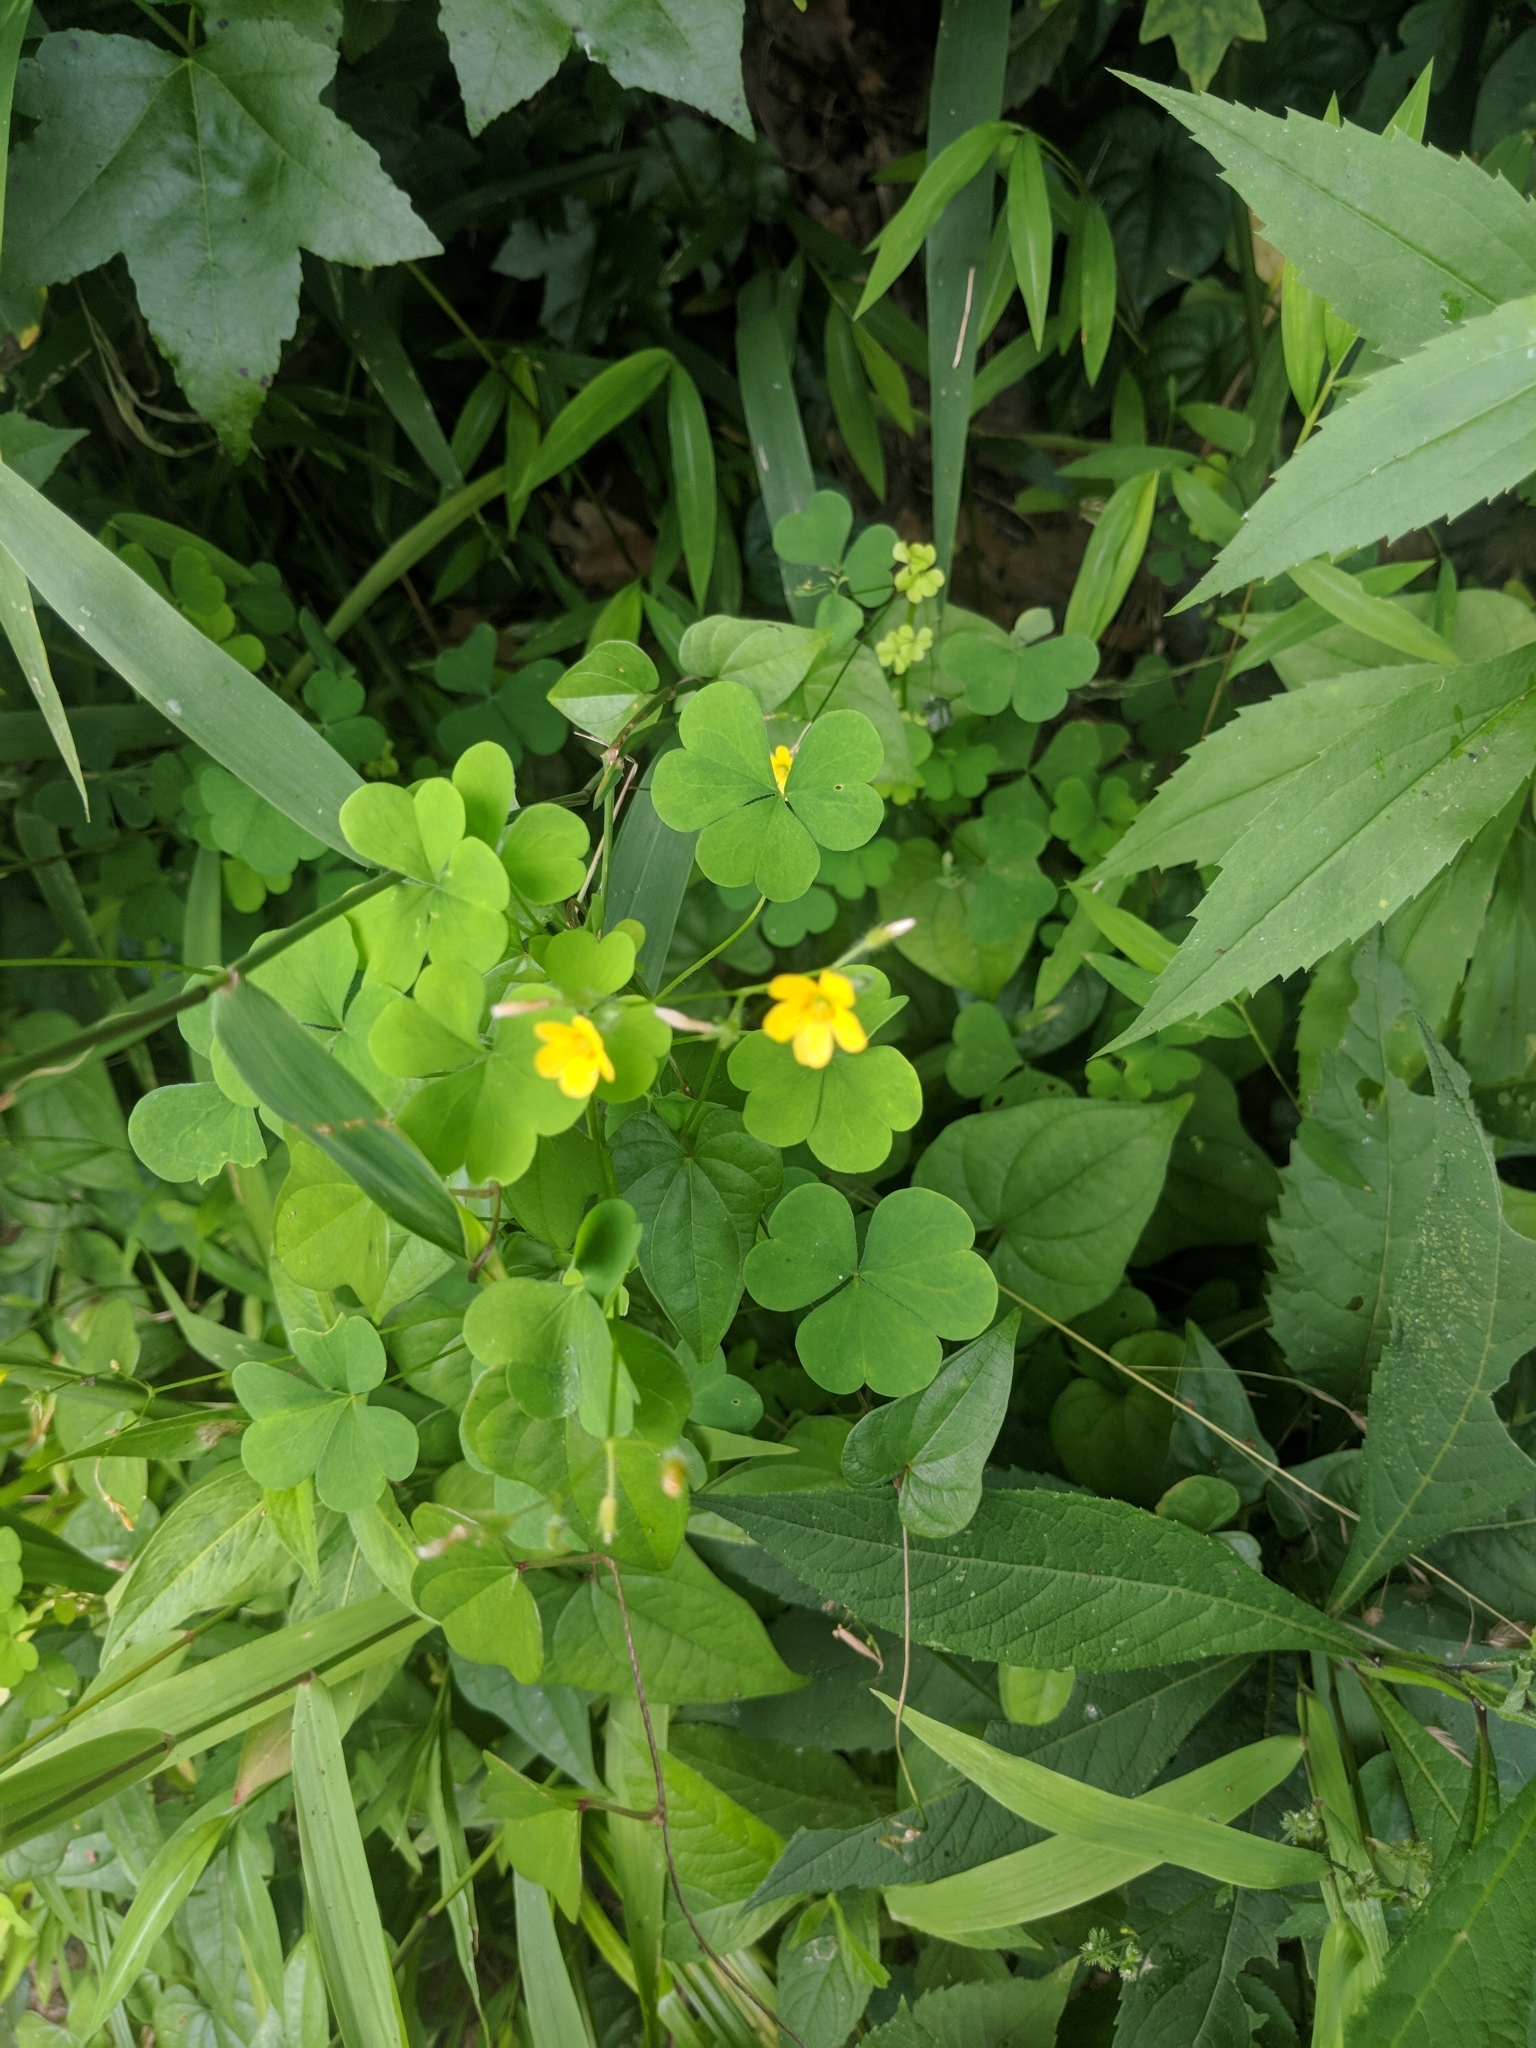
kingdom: Plantae
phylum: Tracheophyta
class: Magnoliopsida
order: Oxalidales
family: Oxalidaceae
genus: Oxalis
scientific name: Oxalis stricta
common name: Upright yellow-sorrel
